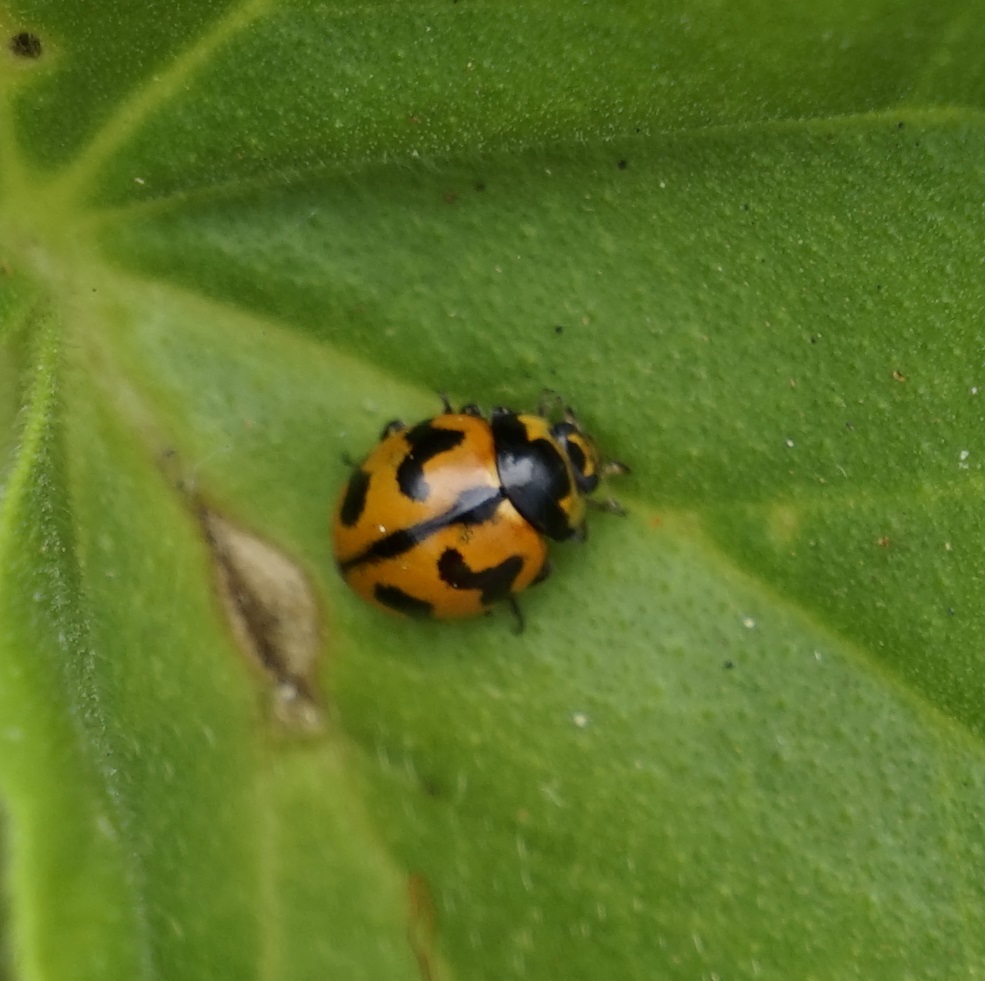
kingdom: Animalia
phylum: Arthropoda
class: Insecta
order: Coleoptera
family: Coccinellidae
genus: Coccinella
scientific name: Coccinella transversalis
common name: Transverse lady beetle
